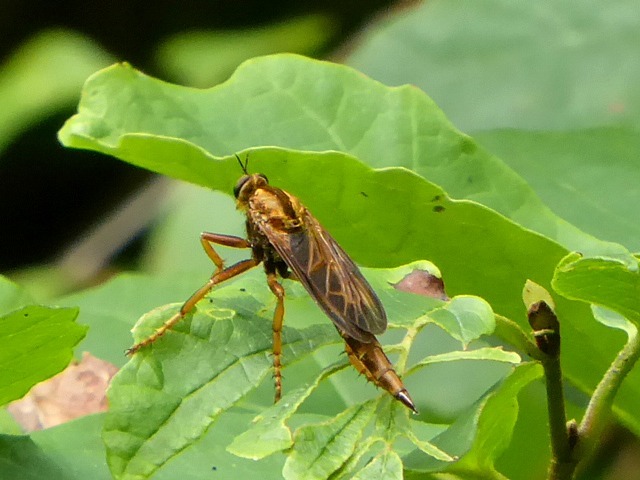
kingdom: Animalia
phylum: Arthropoda
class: Insecta
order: Diptera
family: Asilidae
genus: Asilus
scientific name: Asilus sericeus
